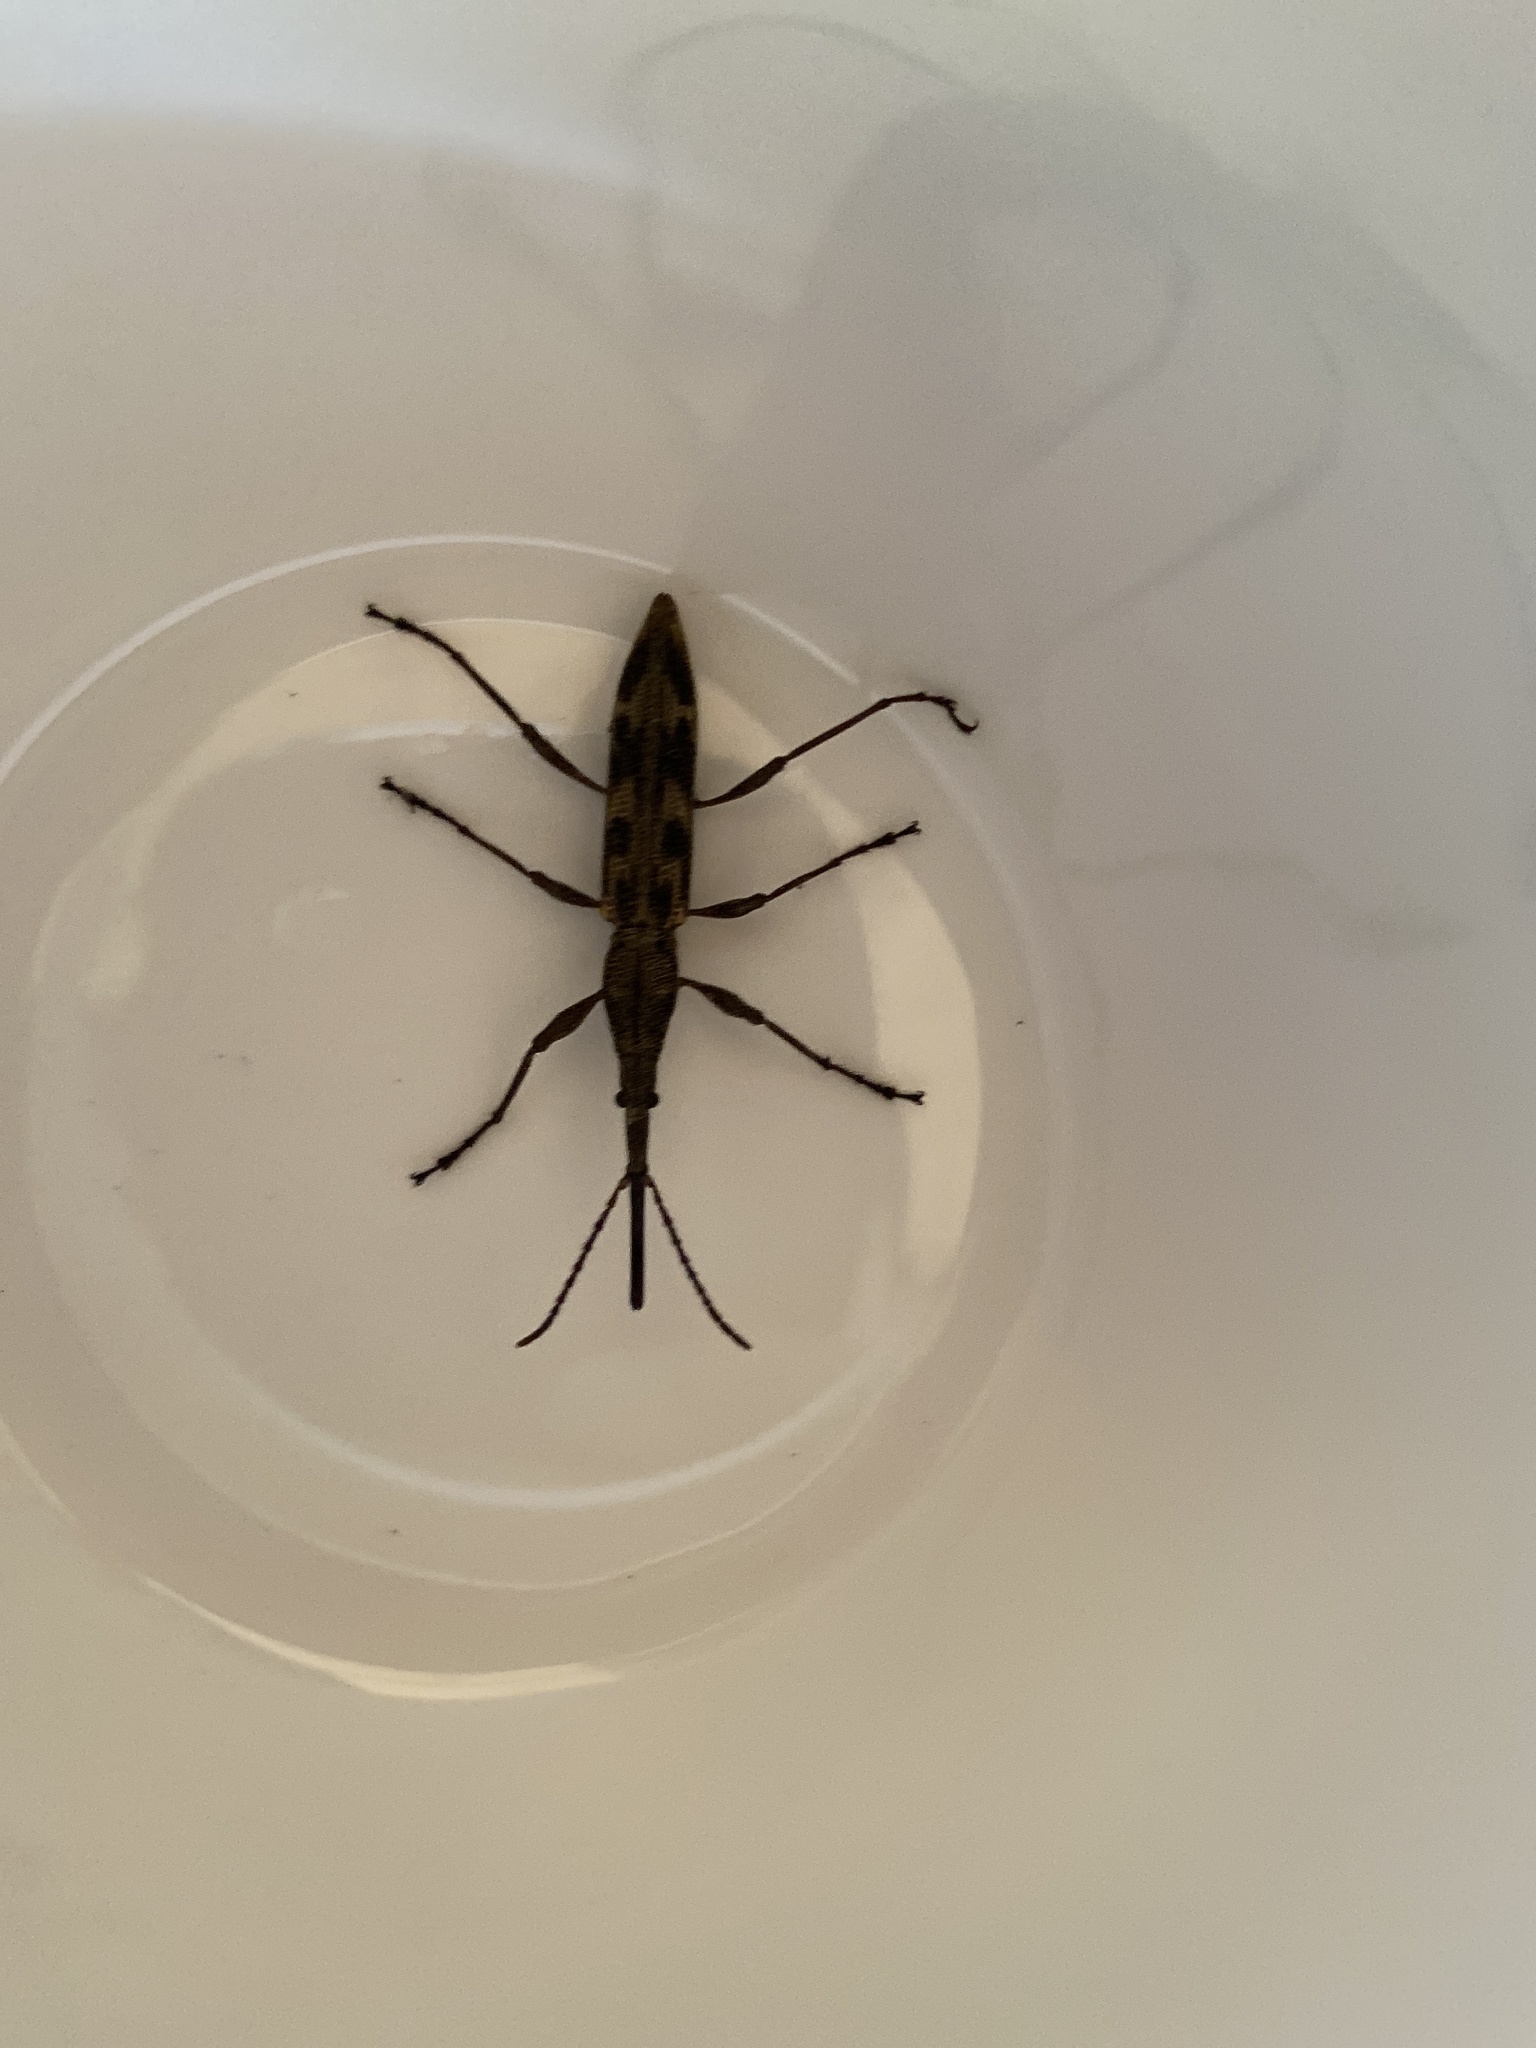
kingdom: Animalia
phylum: Arthropoda
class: Insecta
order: Coleoptera
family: Brentidae
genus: Lasiorhynchus
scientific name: Lasiorhynchus barbicornis
